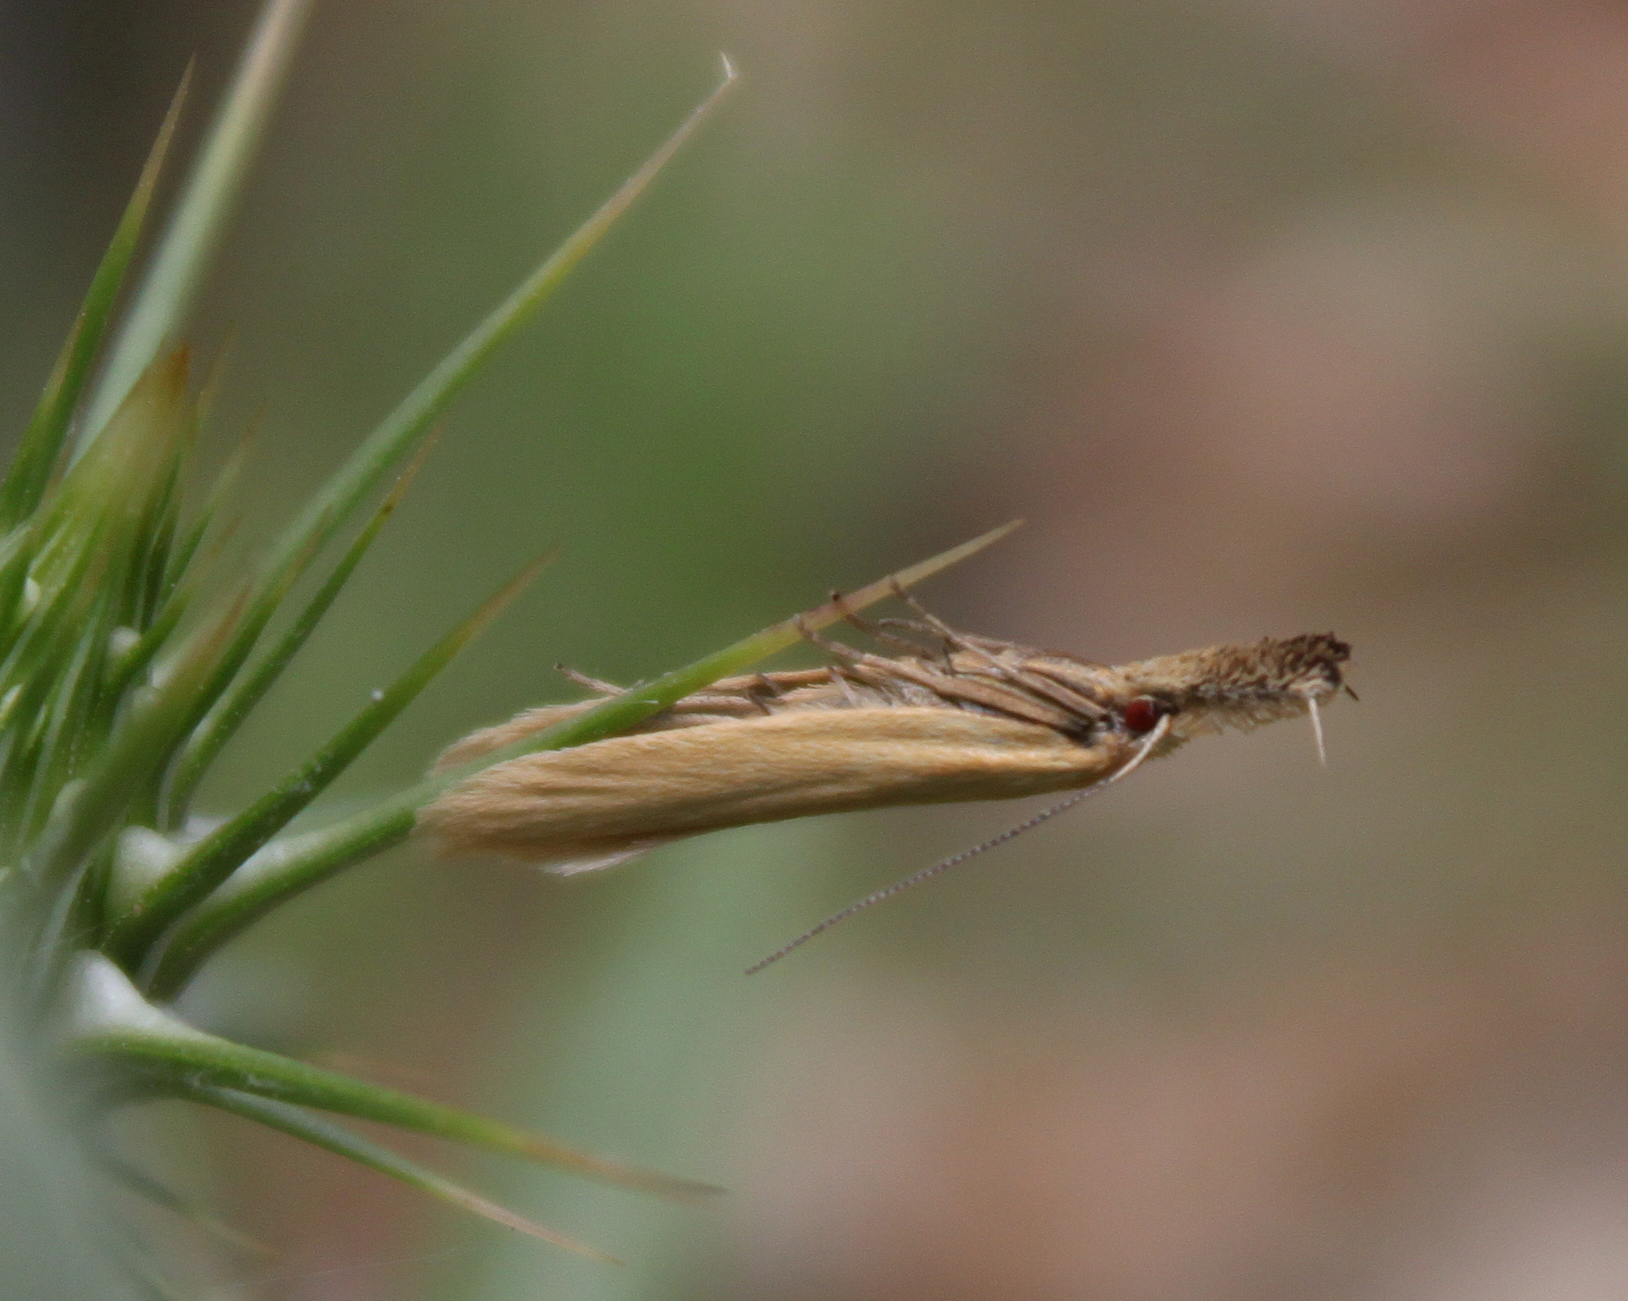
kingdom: Animalia
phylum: Arthropoda
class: Insecta
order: Lepidoptera
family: Oecophoridae
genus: Pleurota
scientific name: Pleurota planella
